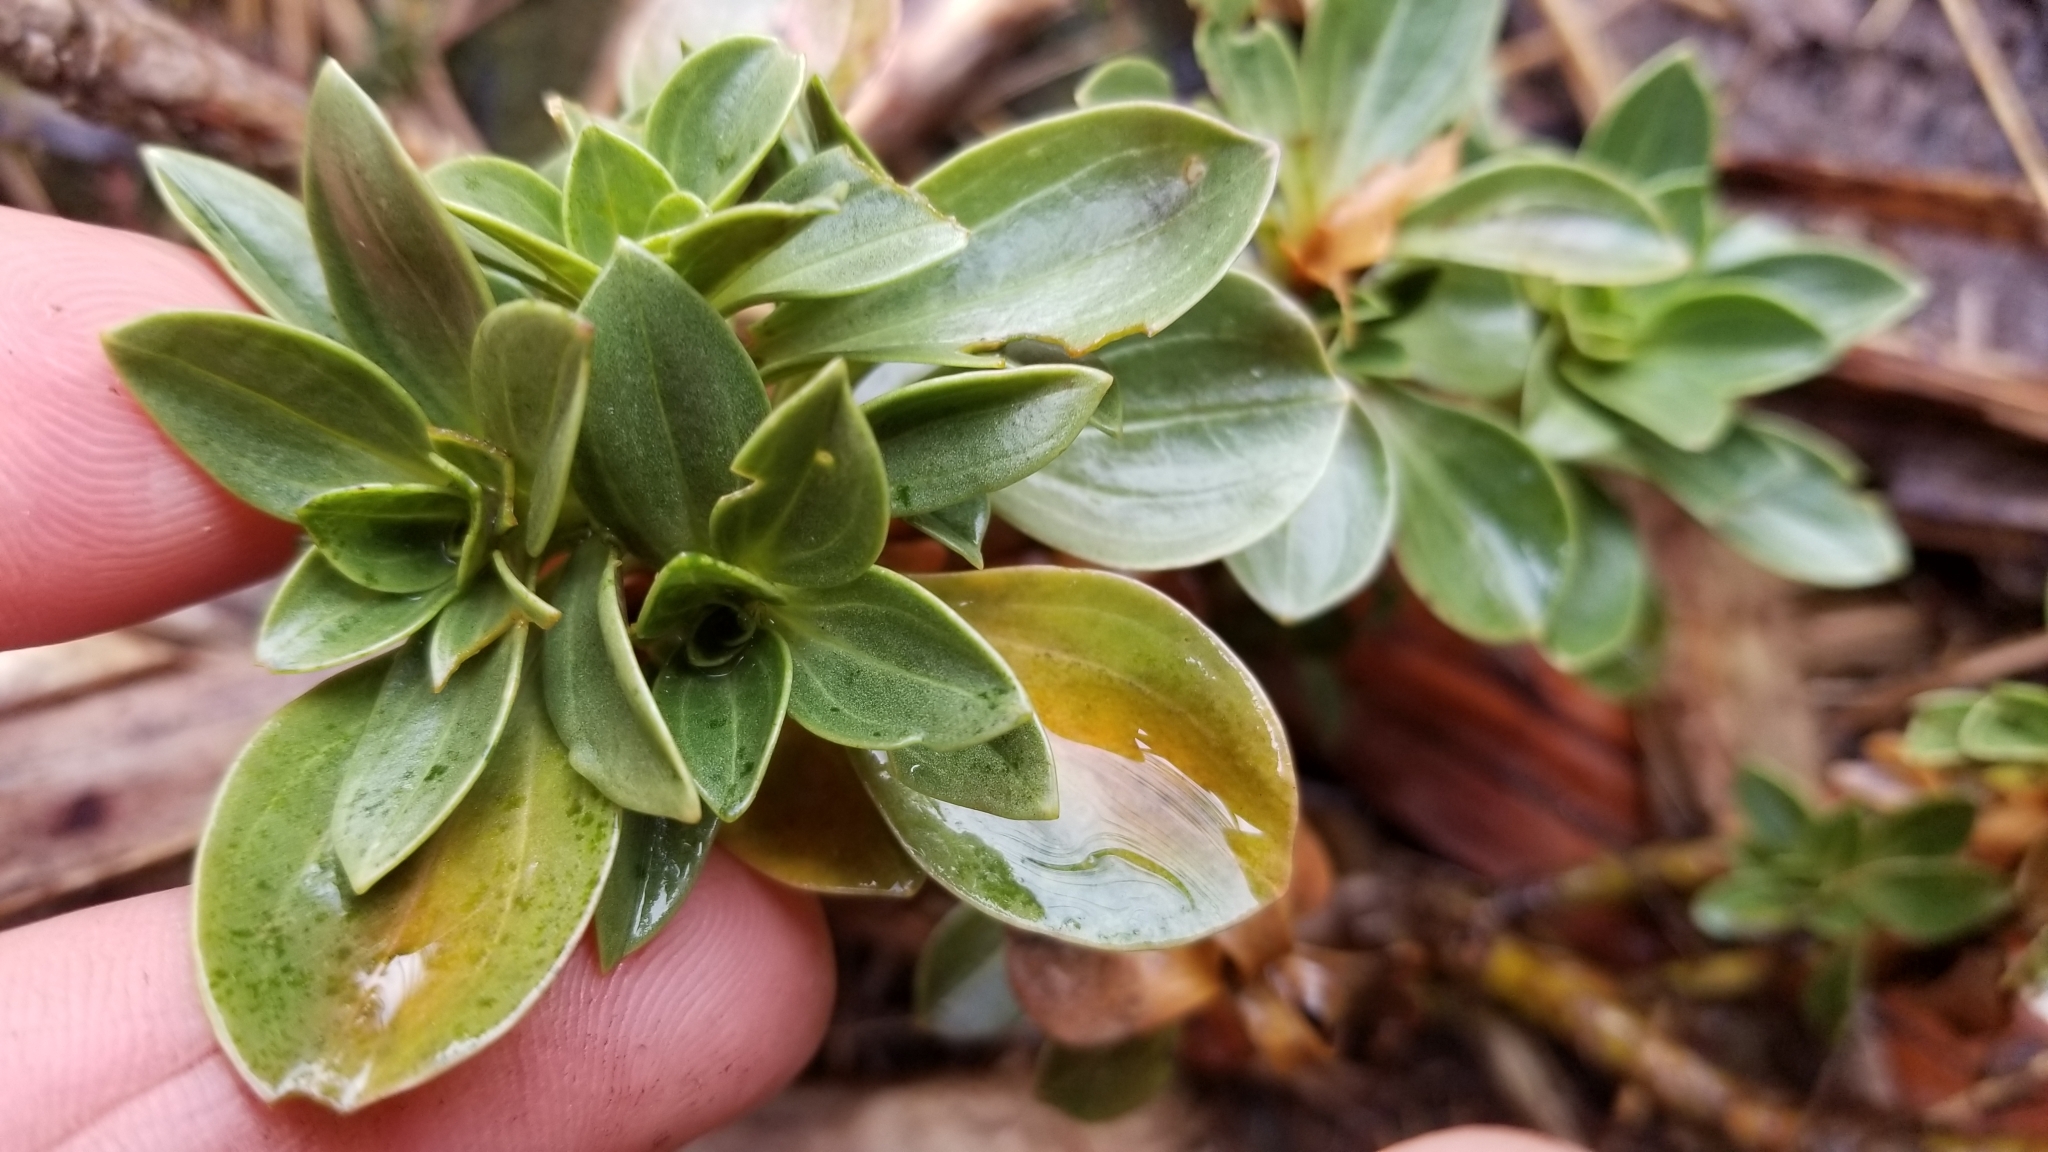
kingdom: Plantae
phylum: Tracheophyta
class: Magnoliopsida
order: Gentianales
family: Gentianaceae
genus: Gentianella
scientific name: Gentianella impressinervia
